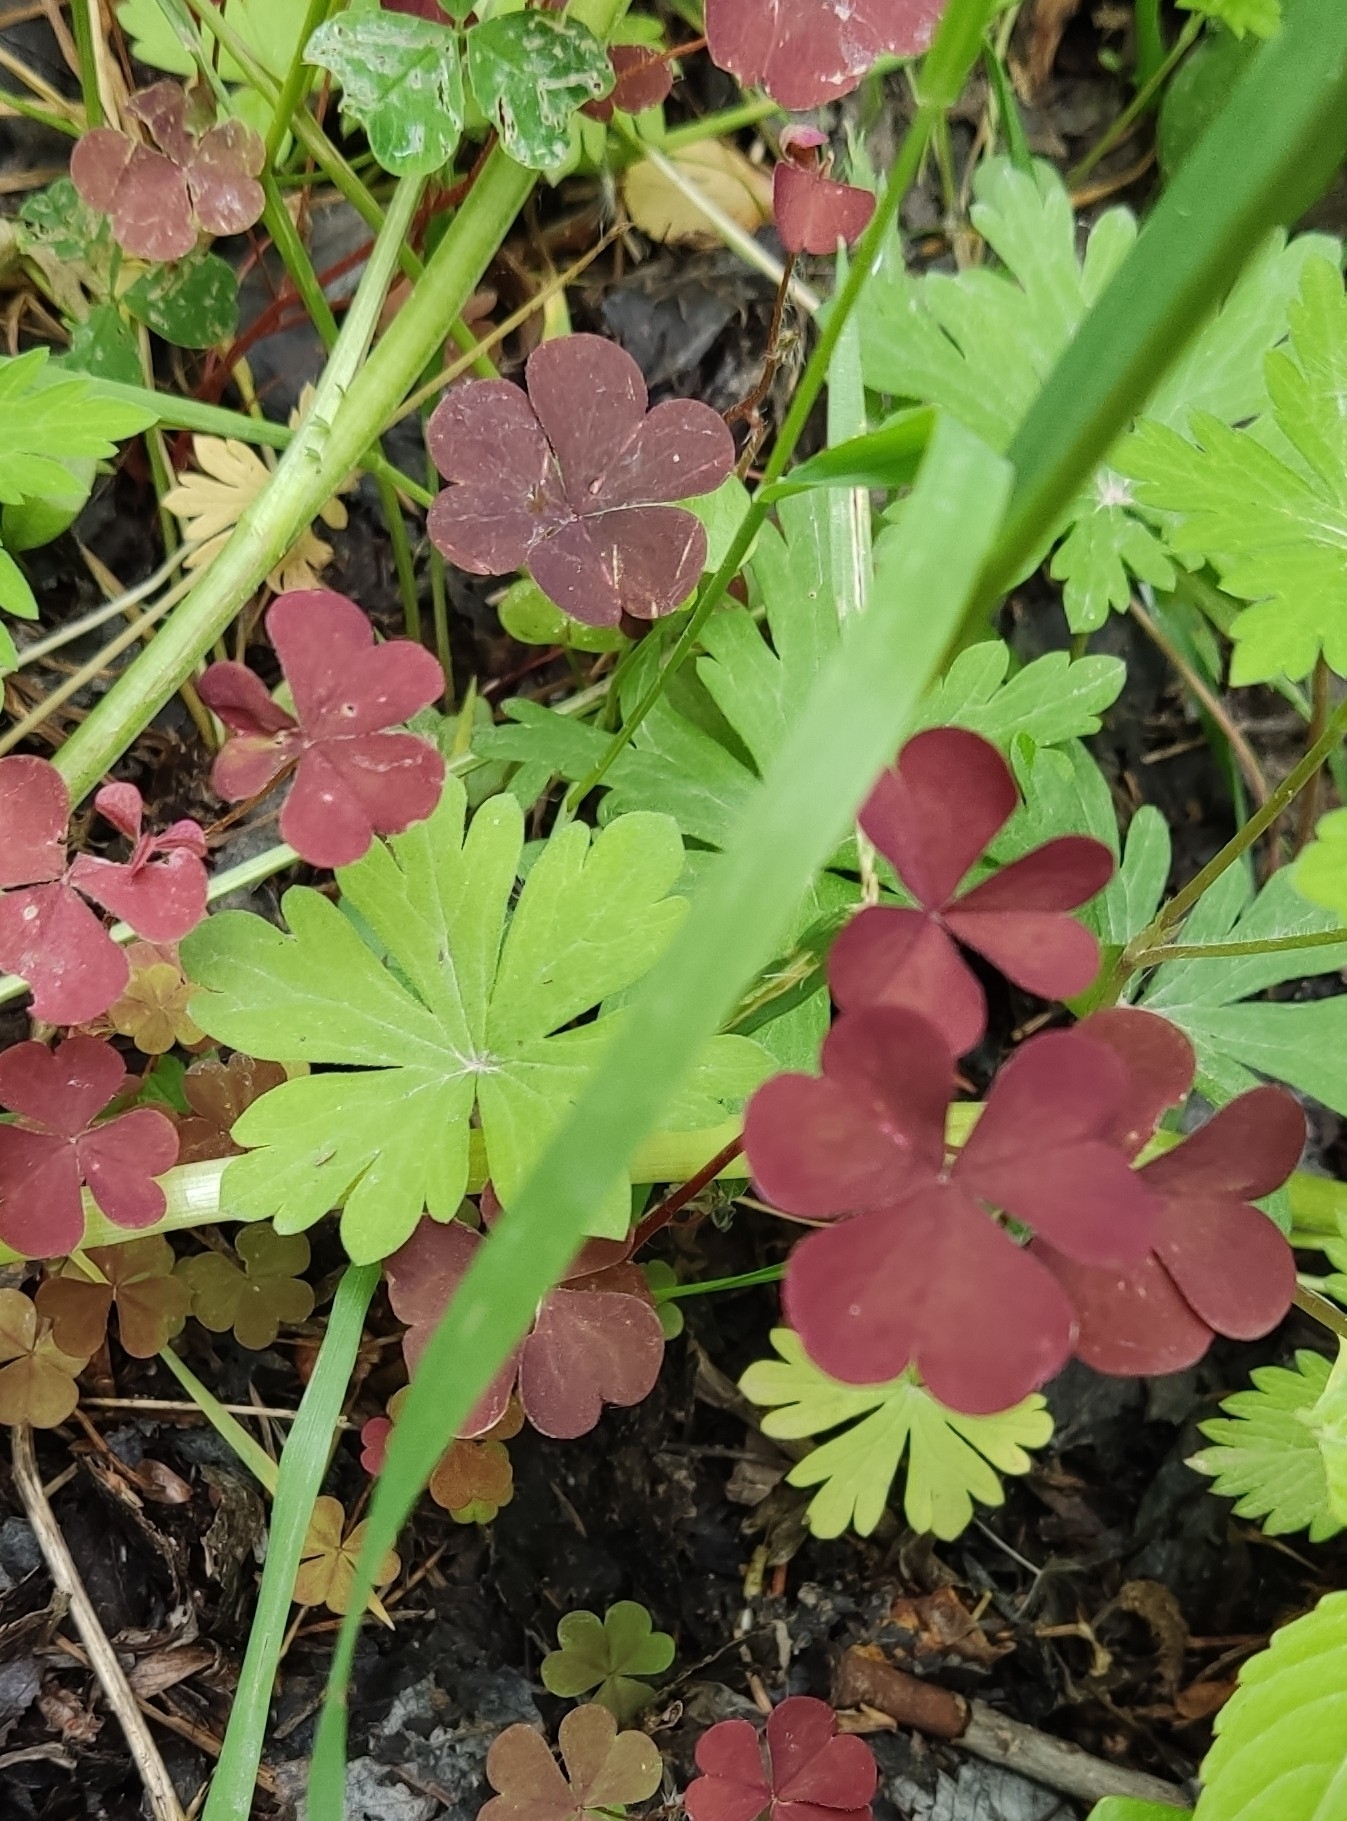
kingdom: Plantae
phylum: Tracheophyta
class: Magnoliopsida
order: Oxalidales
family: Oxalidaceae
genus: Oxalis
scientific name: Oxalis stricta
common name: Upright yellow-sorrel
